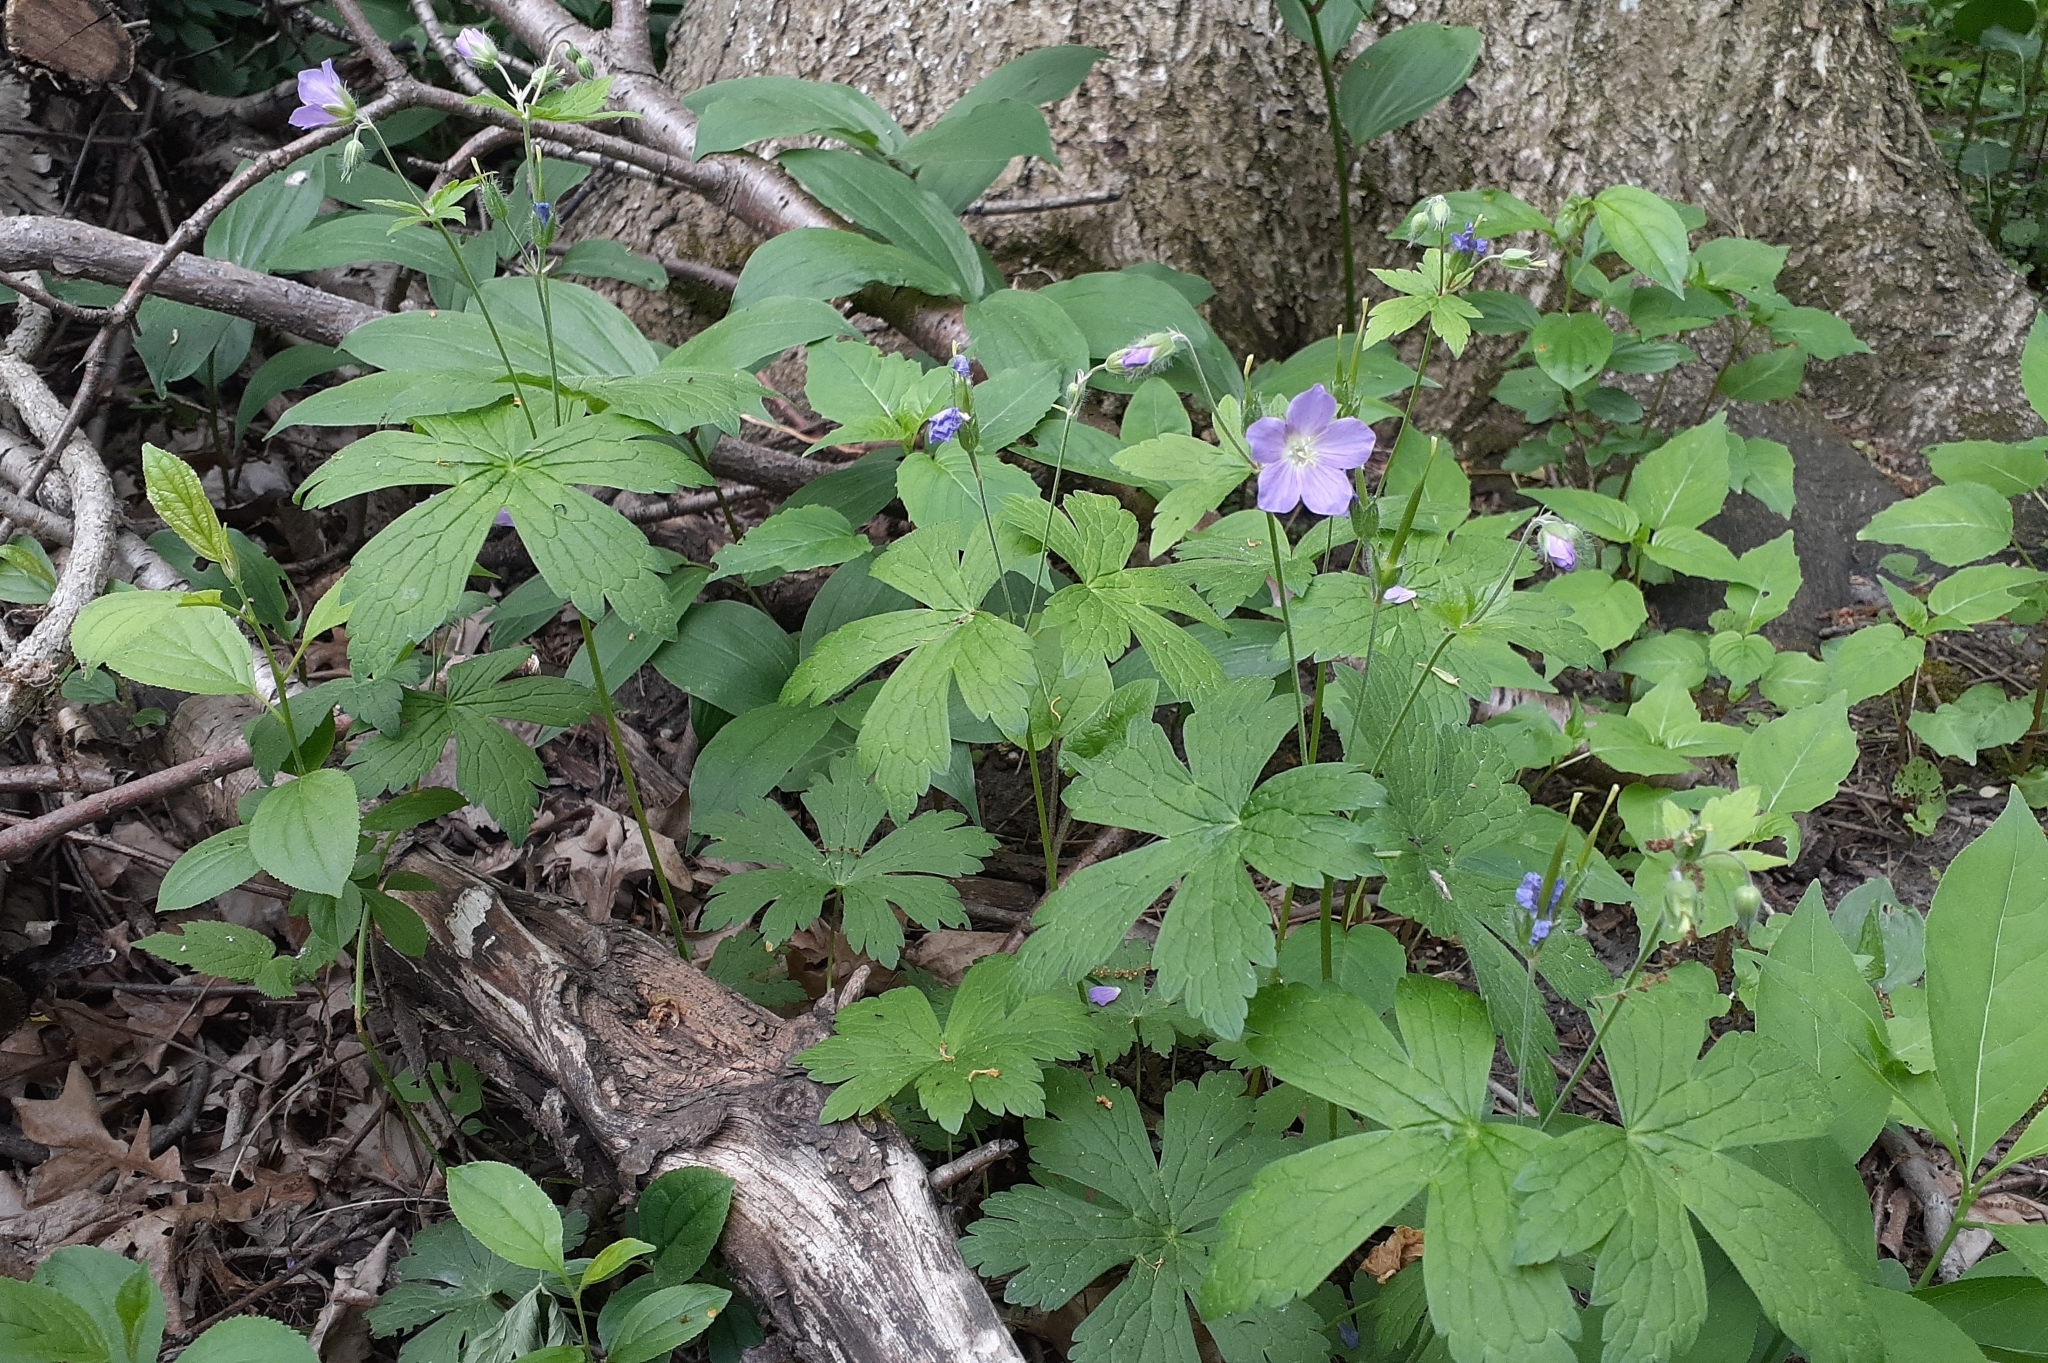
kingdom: Plantae
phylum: Tracheophyta
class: Magnoliopsida
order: Geraniales
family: Geraniaceae
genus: Geranium
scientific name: Geranium maculatum
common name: Spotted geranium
